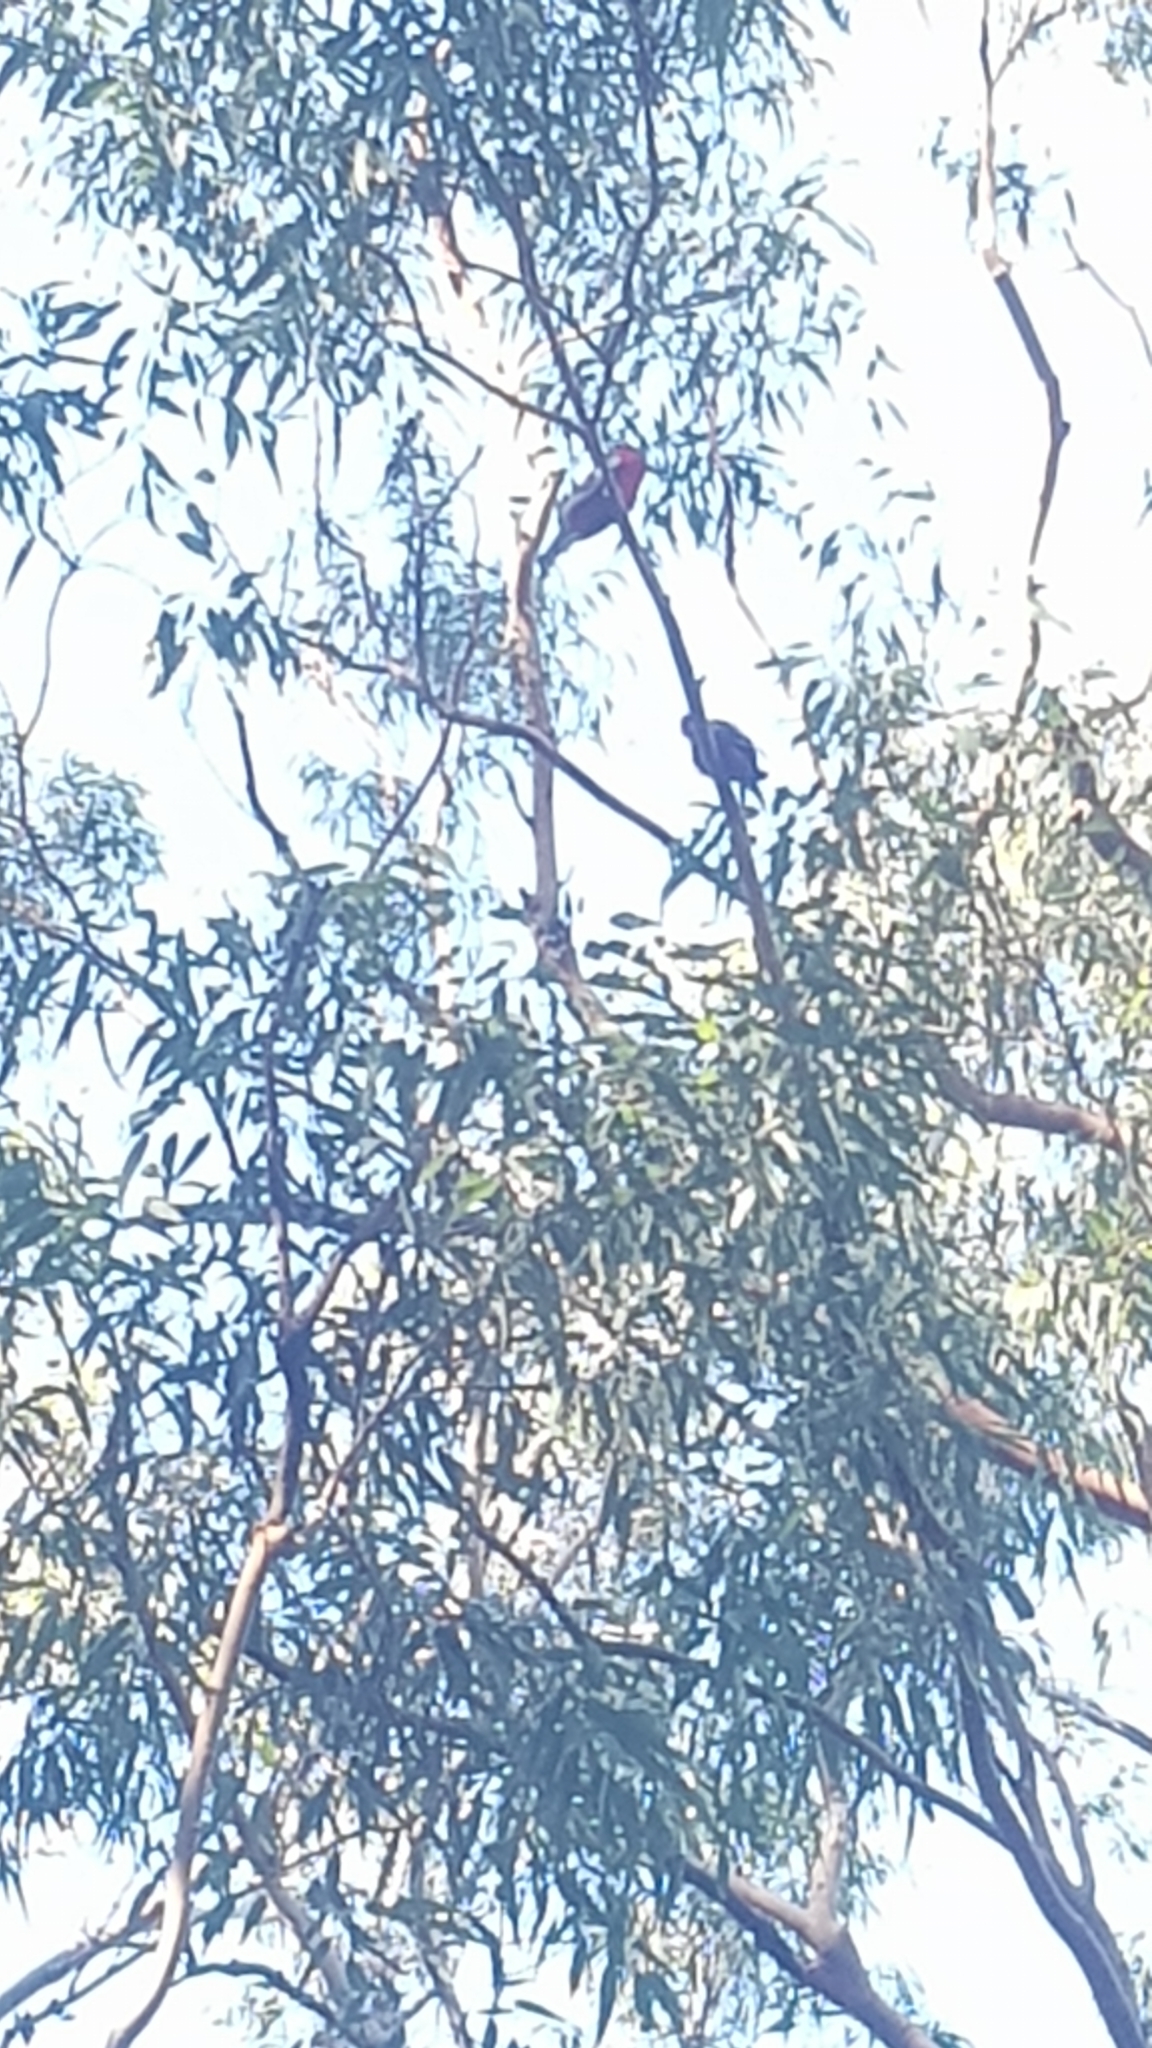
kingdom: Animalia
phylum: Chordata
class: Aves
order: Psittaciformes
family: Psittacidae
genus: Platycercus
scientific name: Platycercus elegans
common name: Crimson rosella
